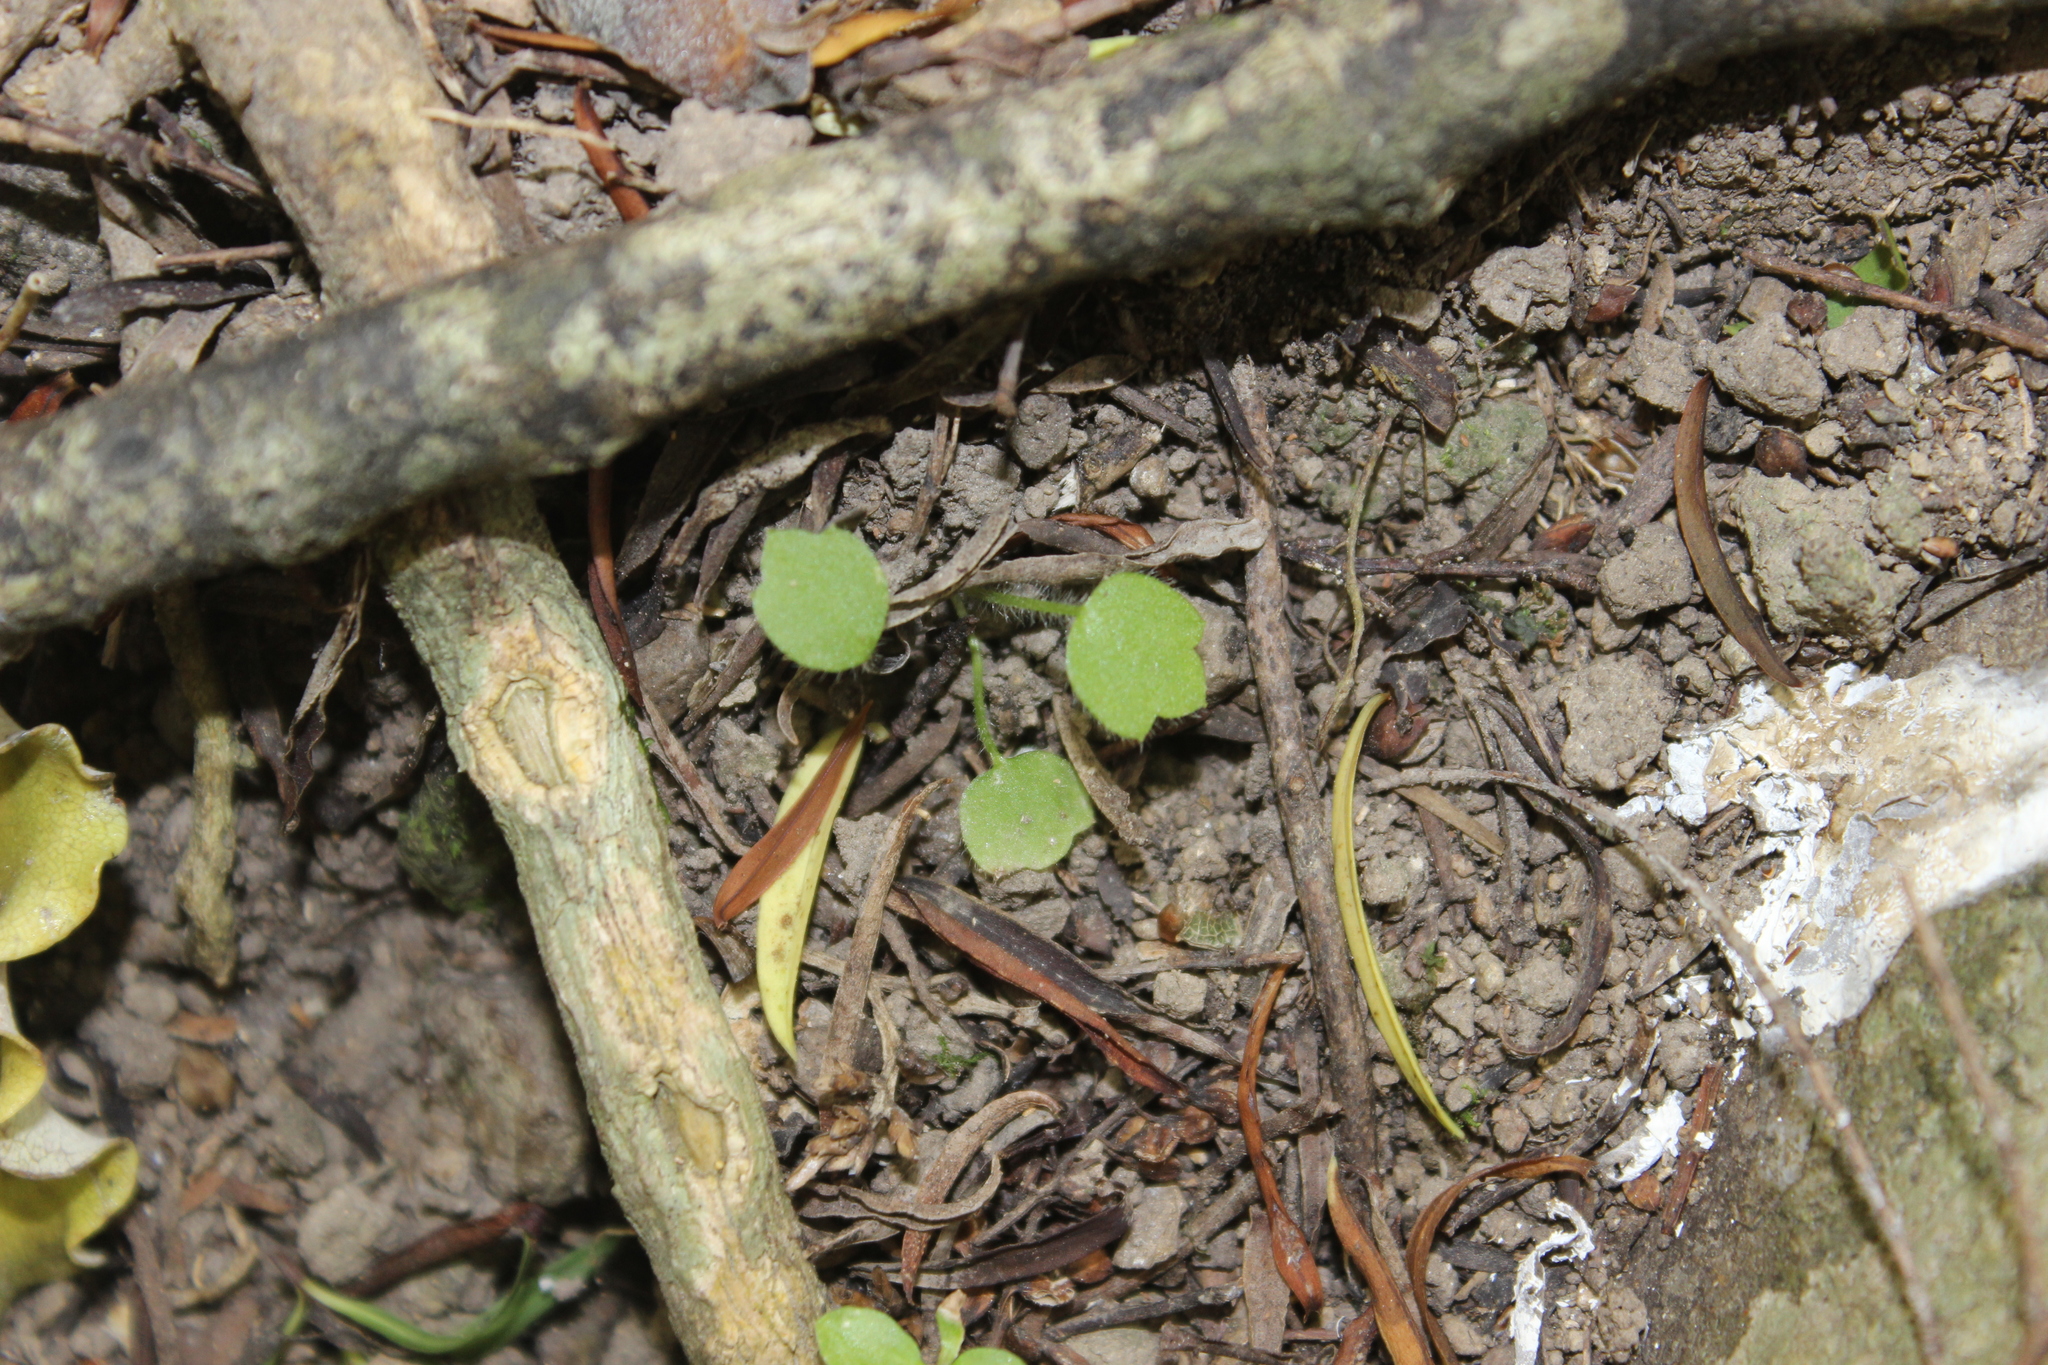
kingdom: Plantae
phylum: Tracheophyta
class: Magnoliopsida
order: Ranunculales
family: Ranunculaceae
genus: Ranunculus
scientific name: Ranunculus reflexus
